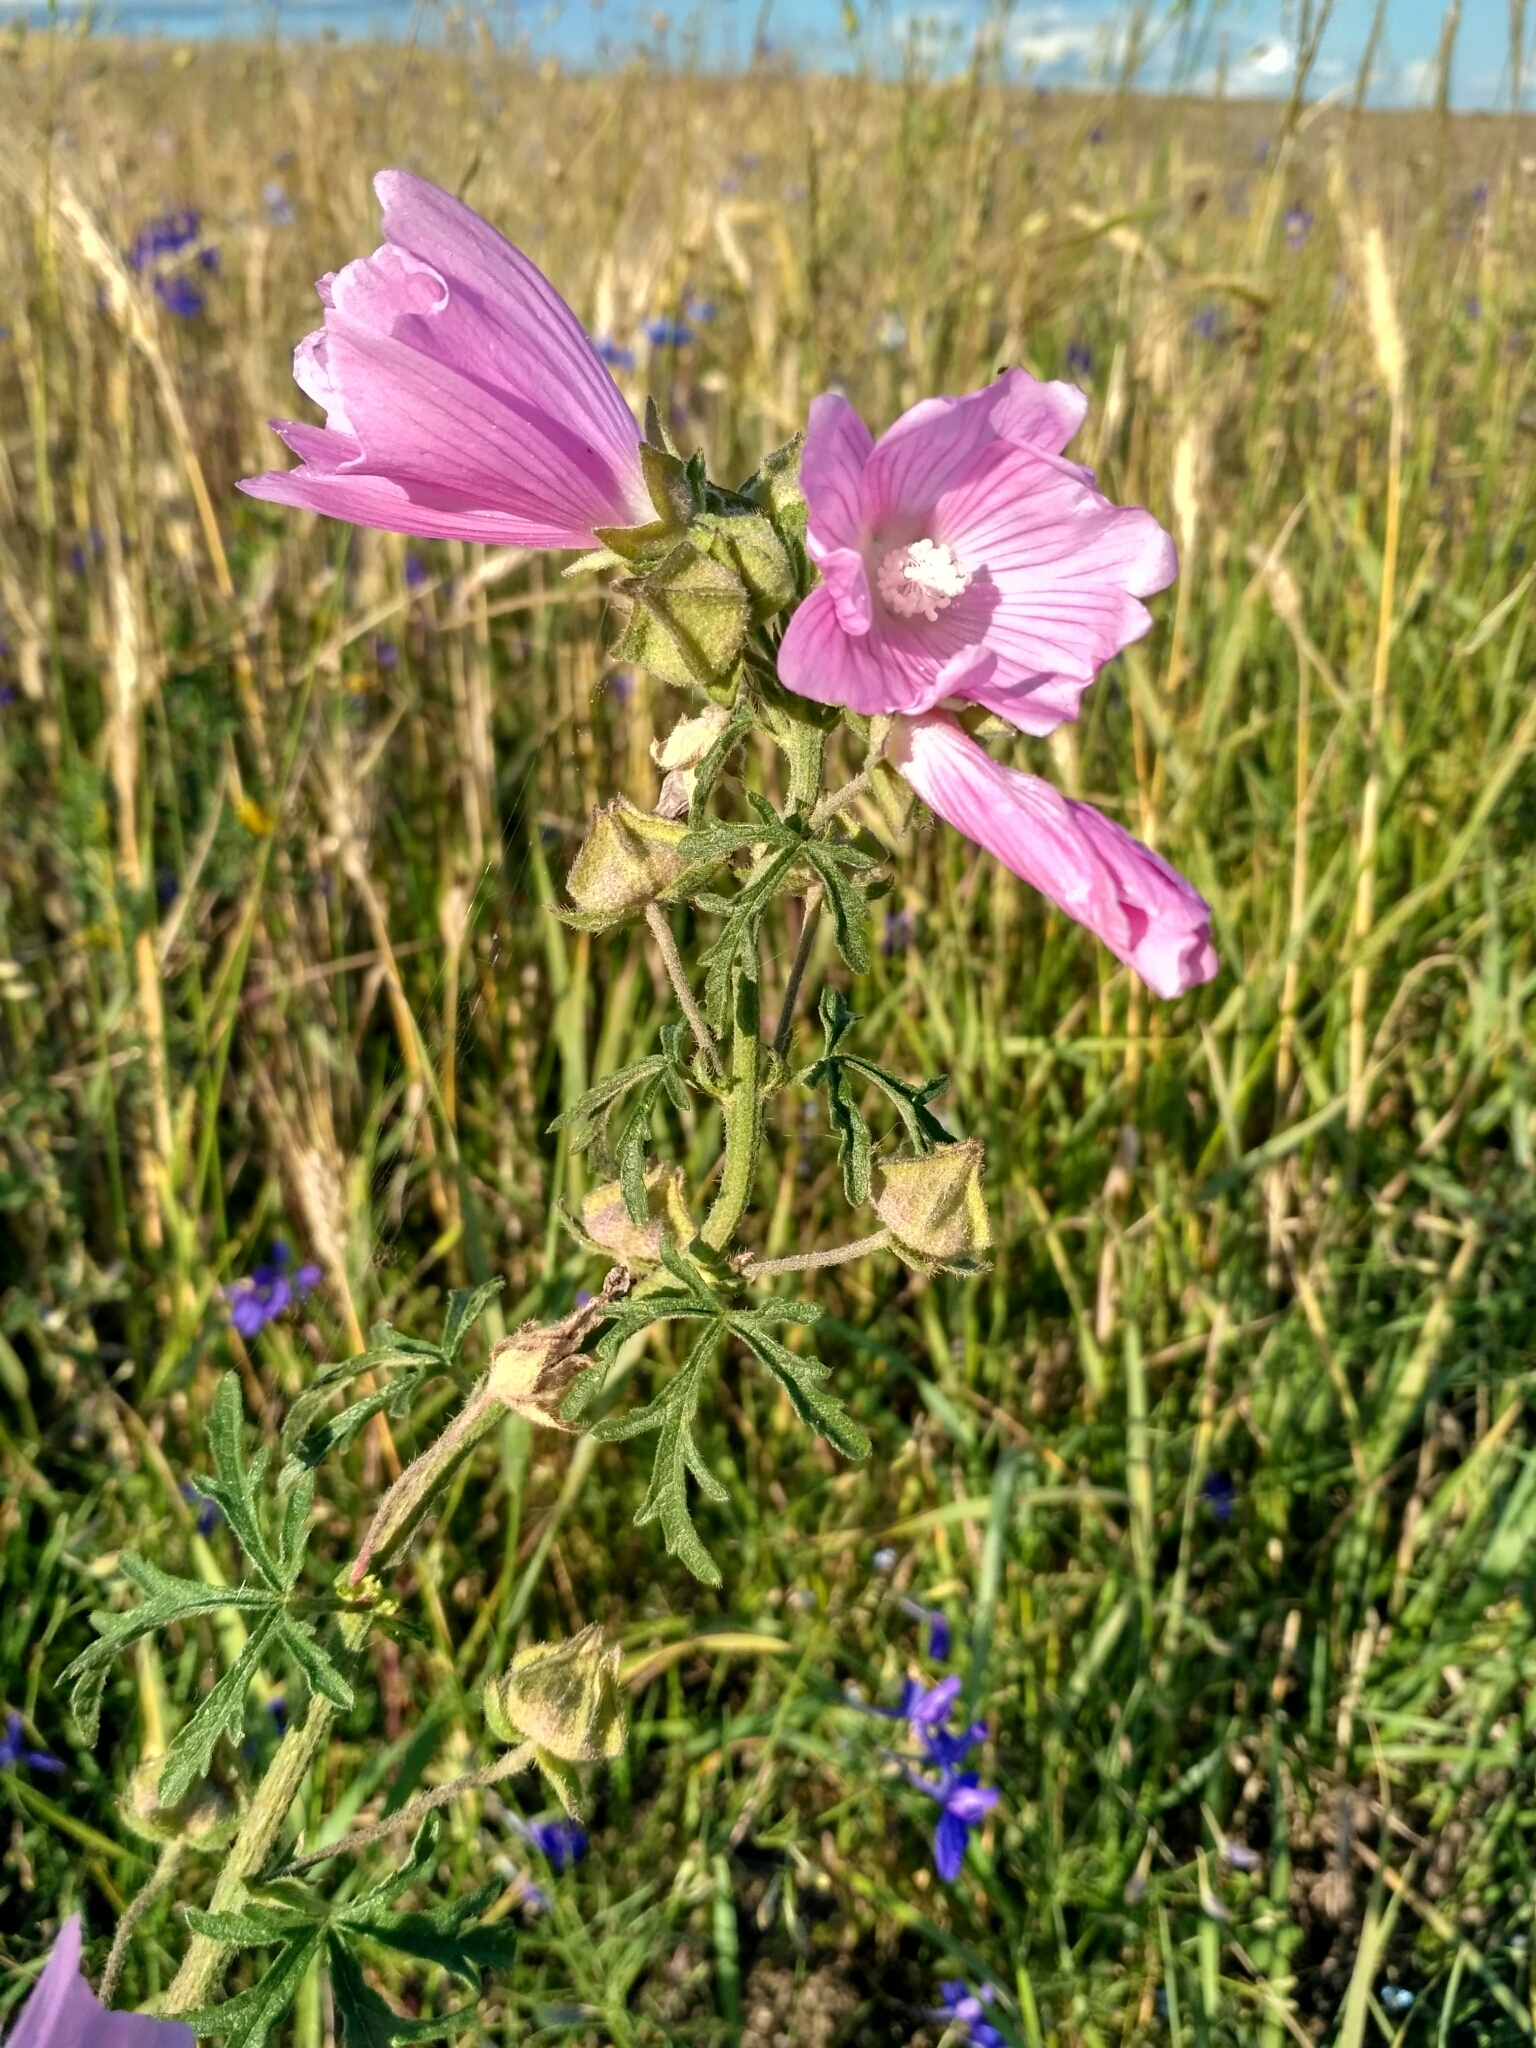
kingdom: Plantae
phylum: Tracheophyta
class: Magnoliopsida
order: Malvales
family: Malvaceae
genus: Malva
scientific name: Malva alcea
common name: Greater musk-mallow
